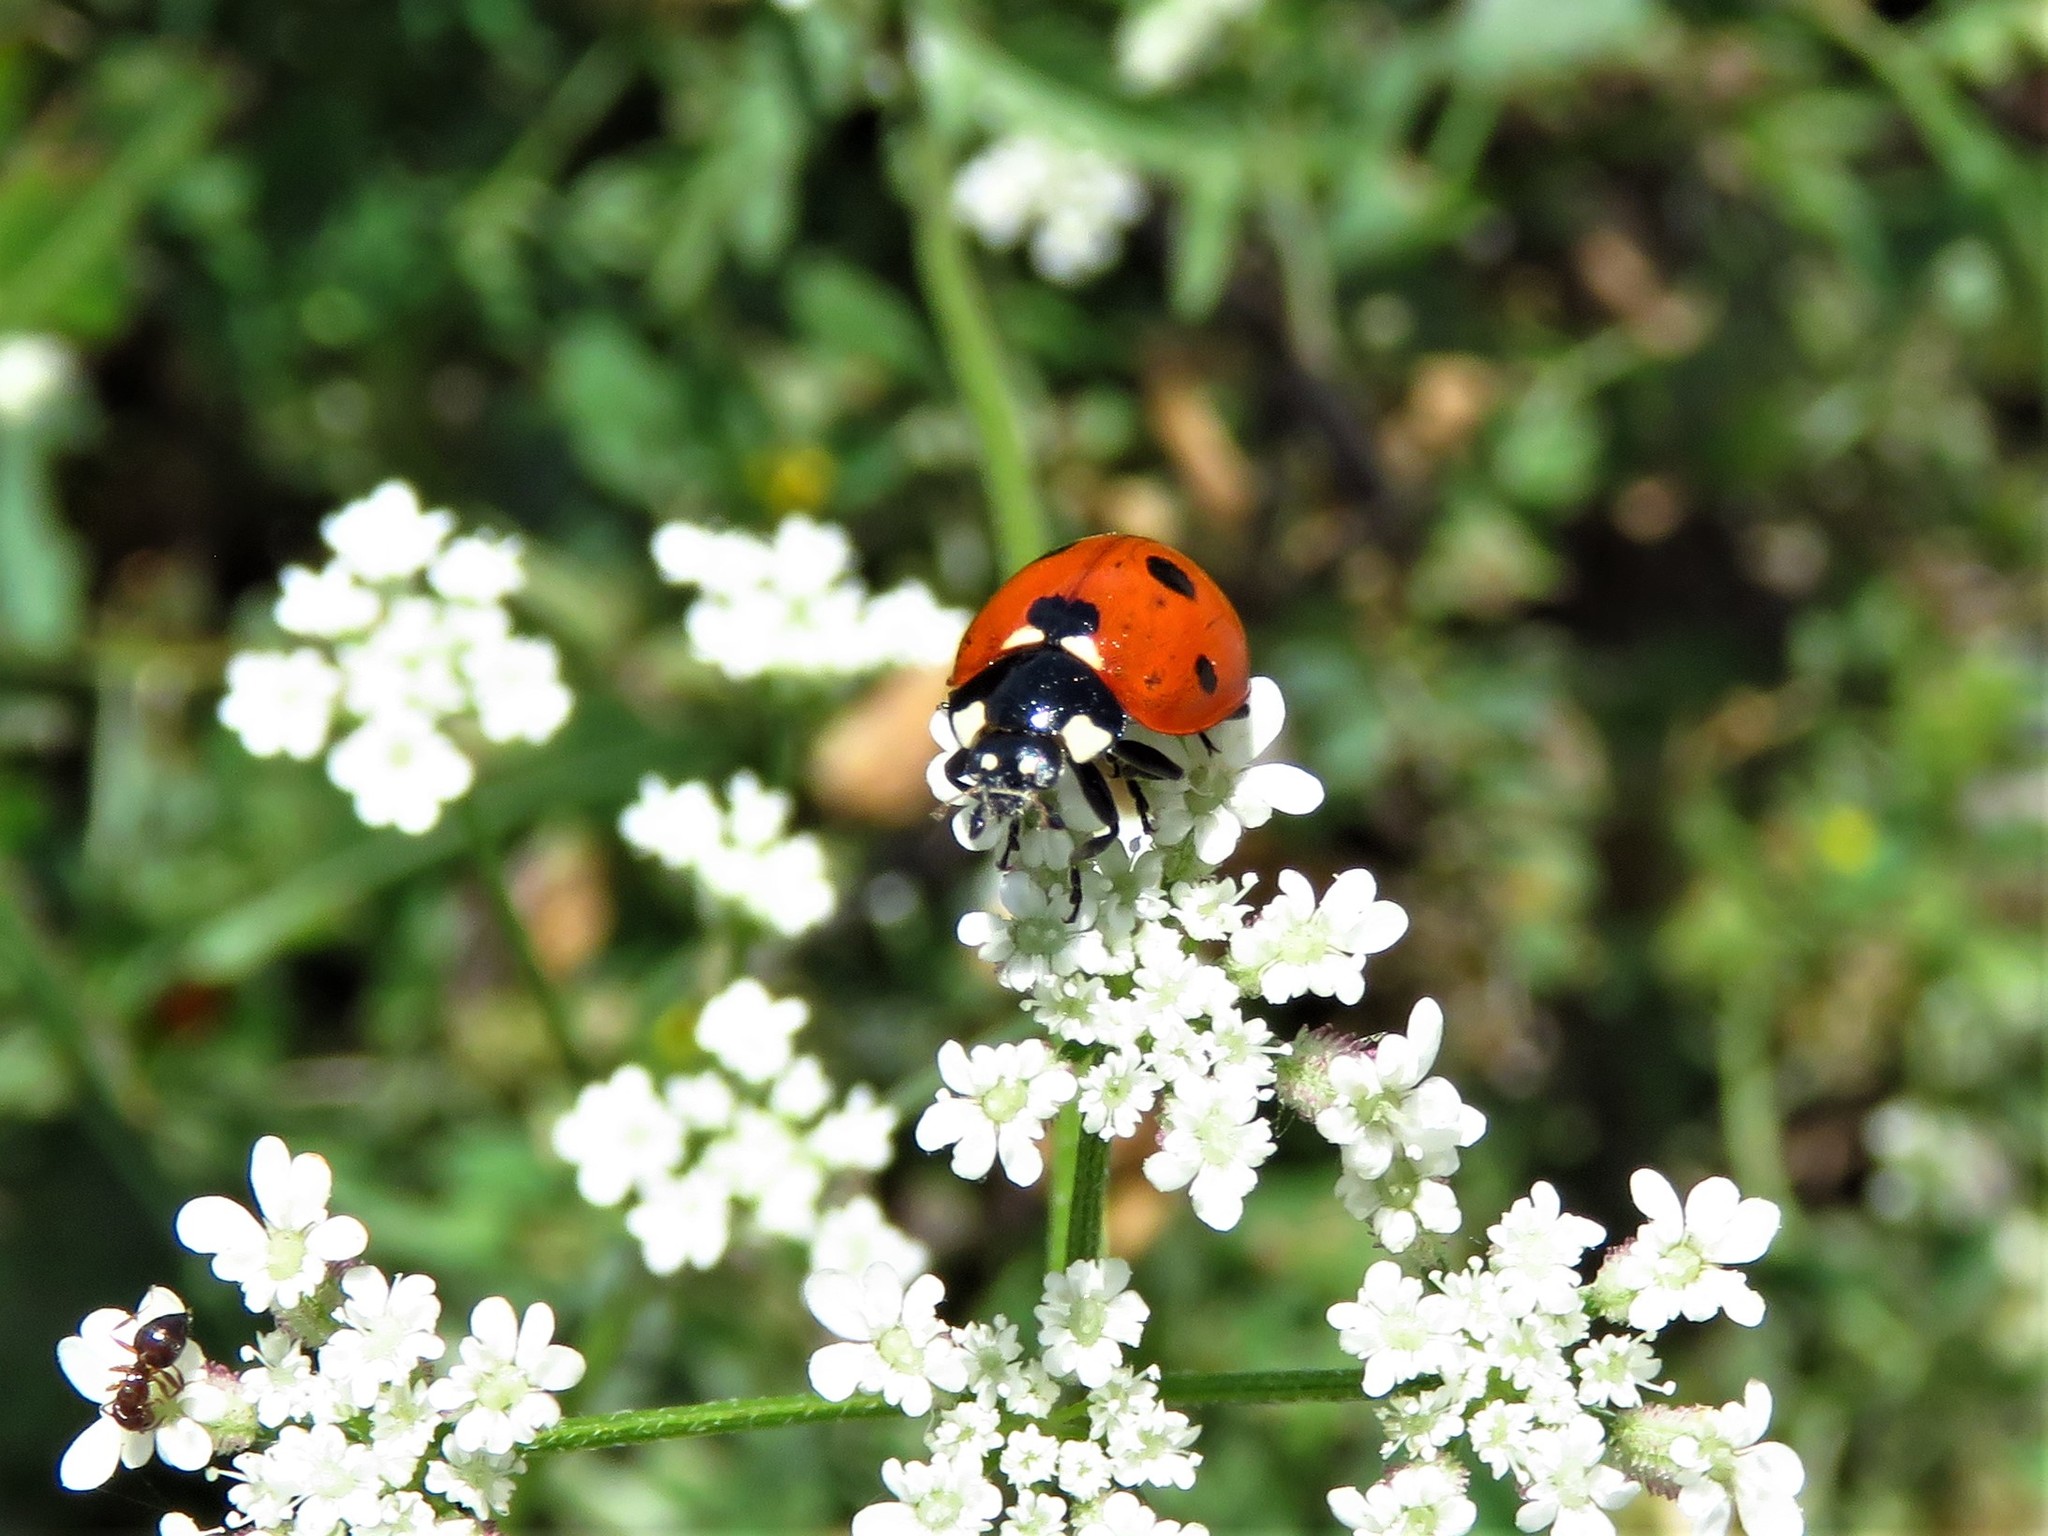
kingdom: Animalia
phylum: Arthropoda
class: Insecta
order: Coleoptera
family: Coccinellidae
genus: Coccinella
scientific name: Coccinella septempunctata
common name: Sevenspotted lady beetle
